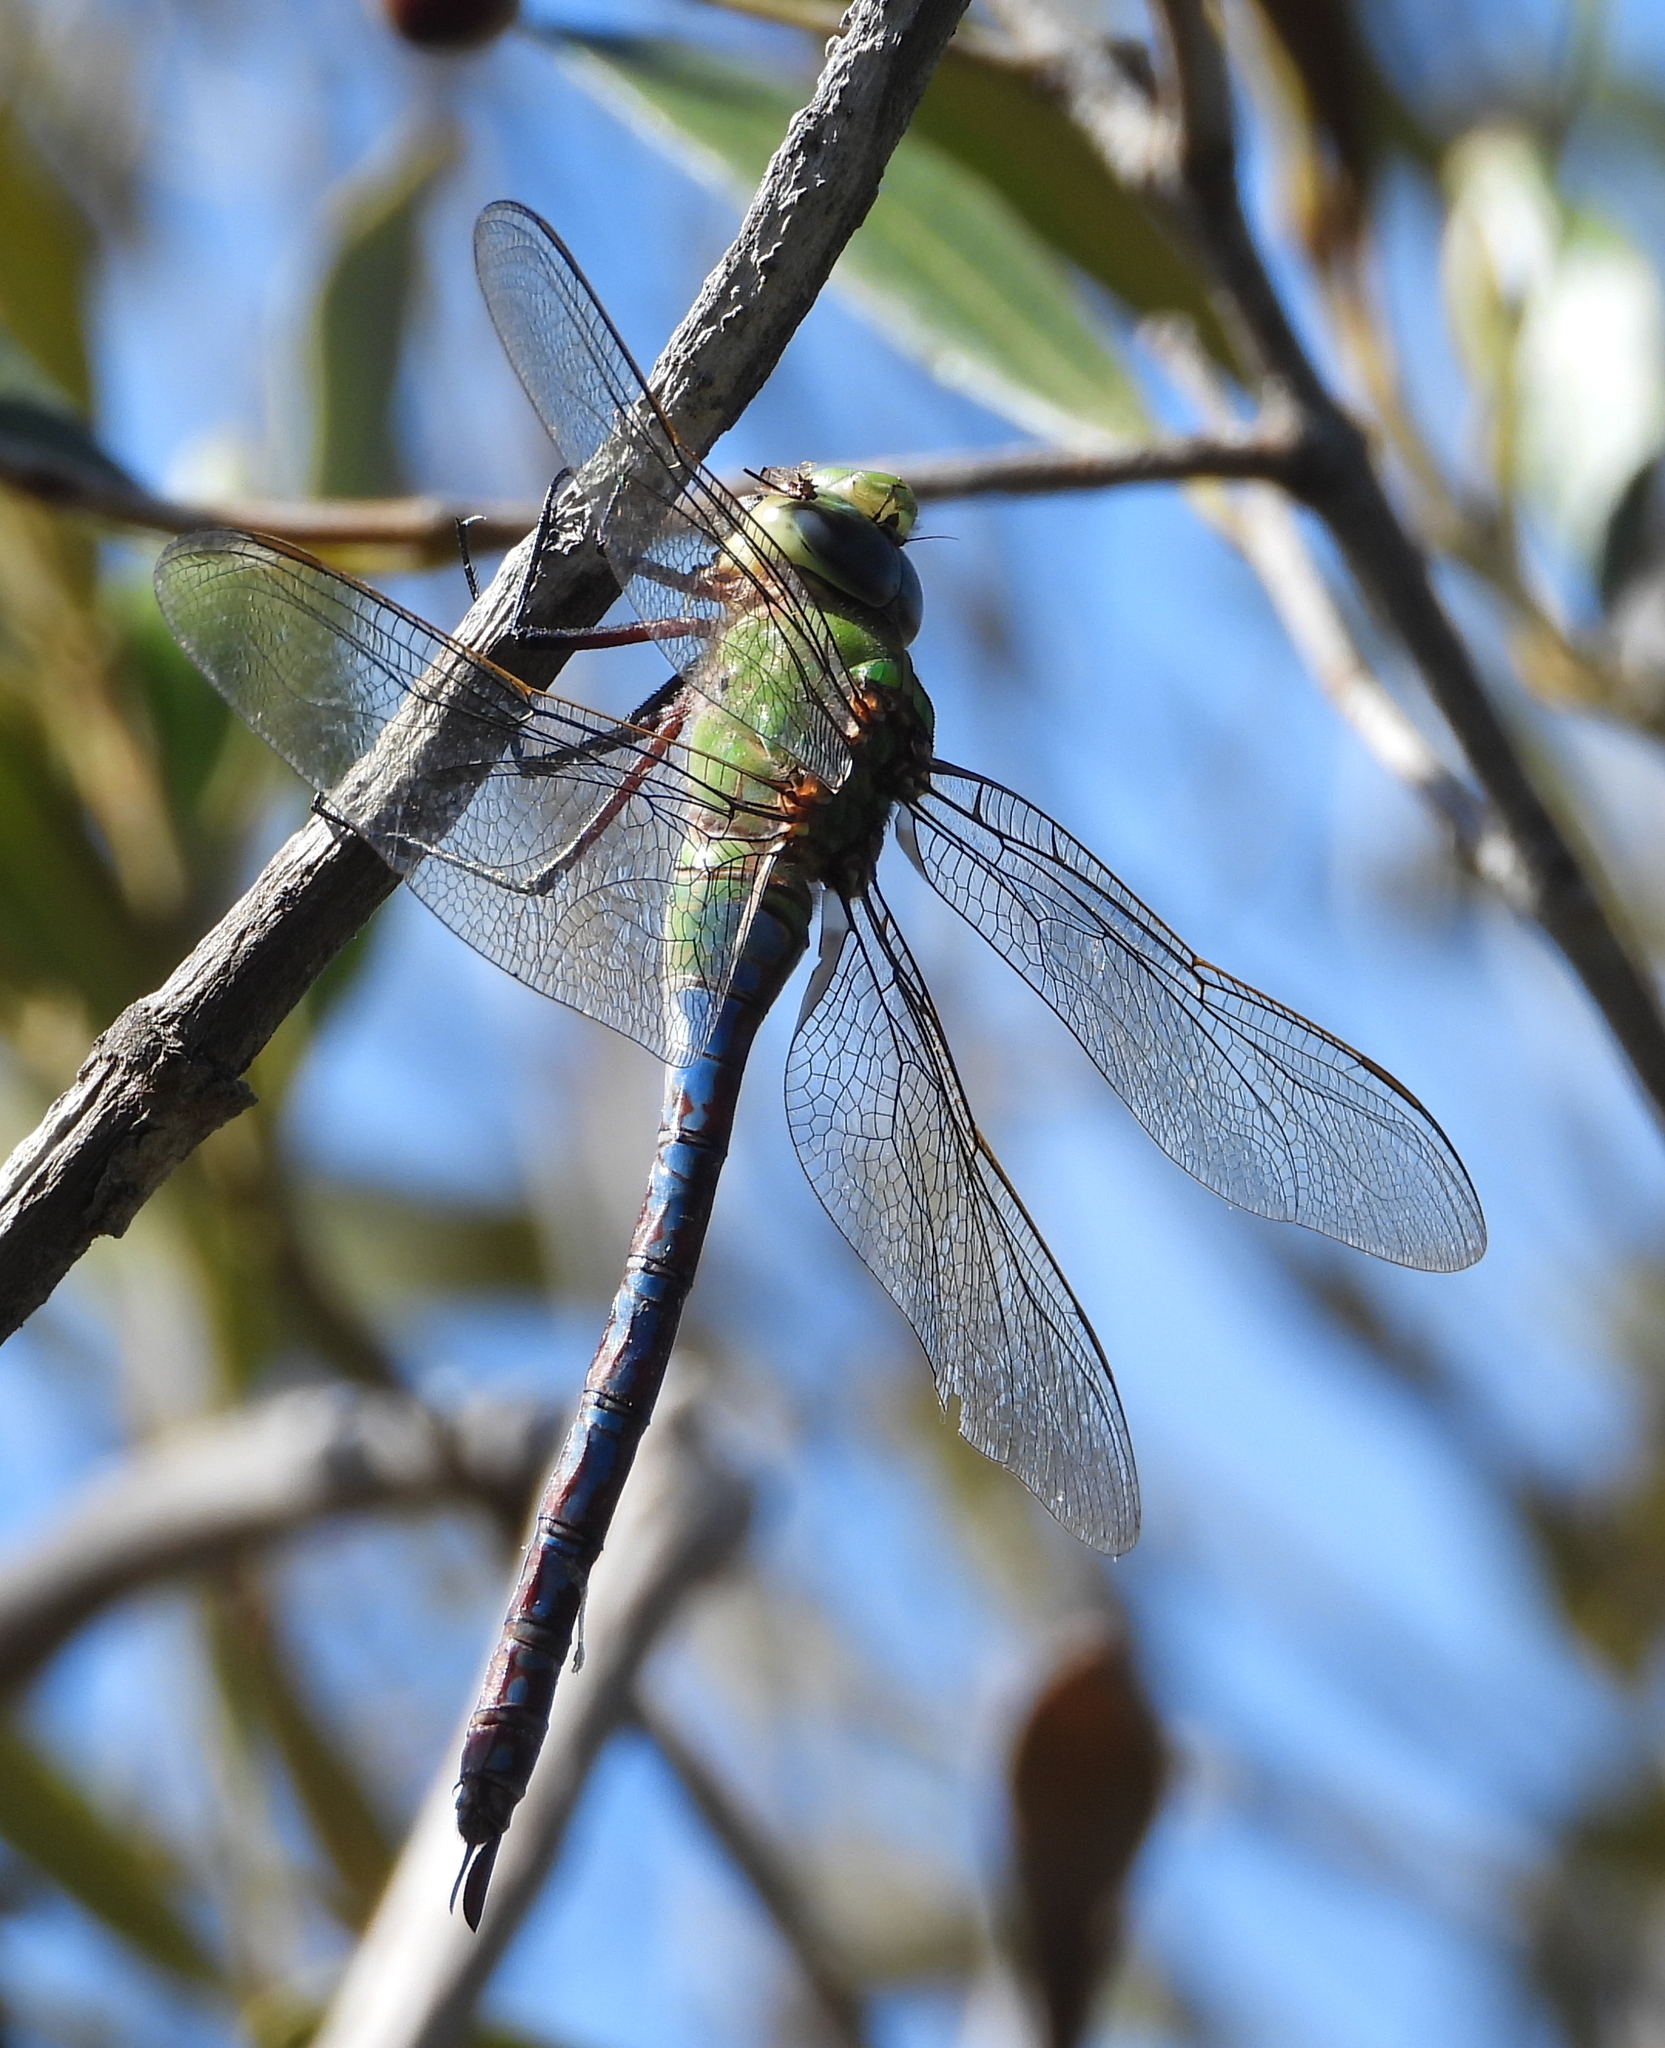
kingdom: Animalia
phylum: Arthropoda
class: Insecta
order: Odonata
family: Aeshnidae
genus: Anax
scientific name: Anax imperator
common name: Emperor dragonfly
